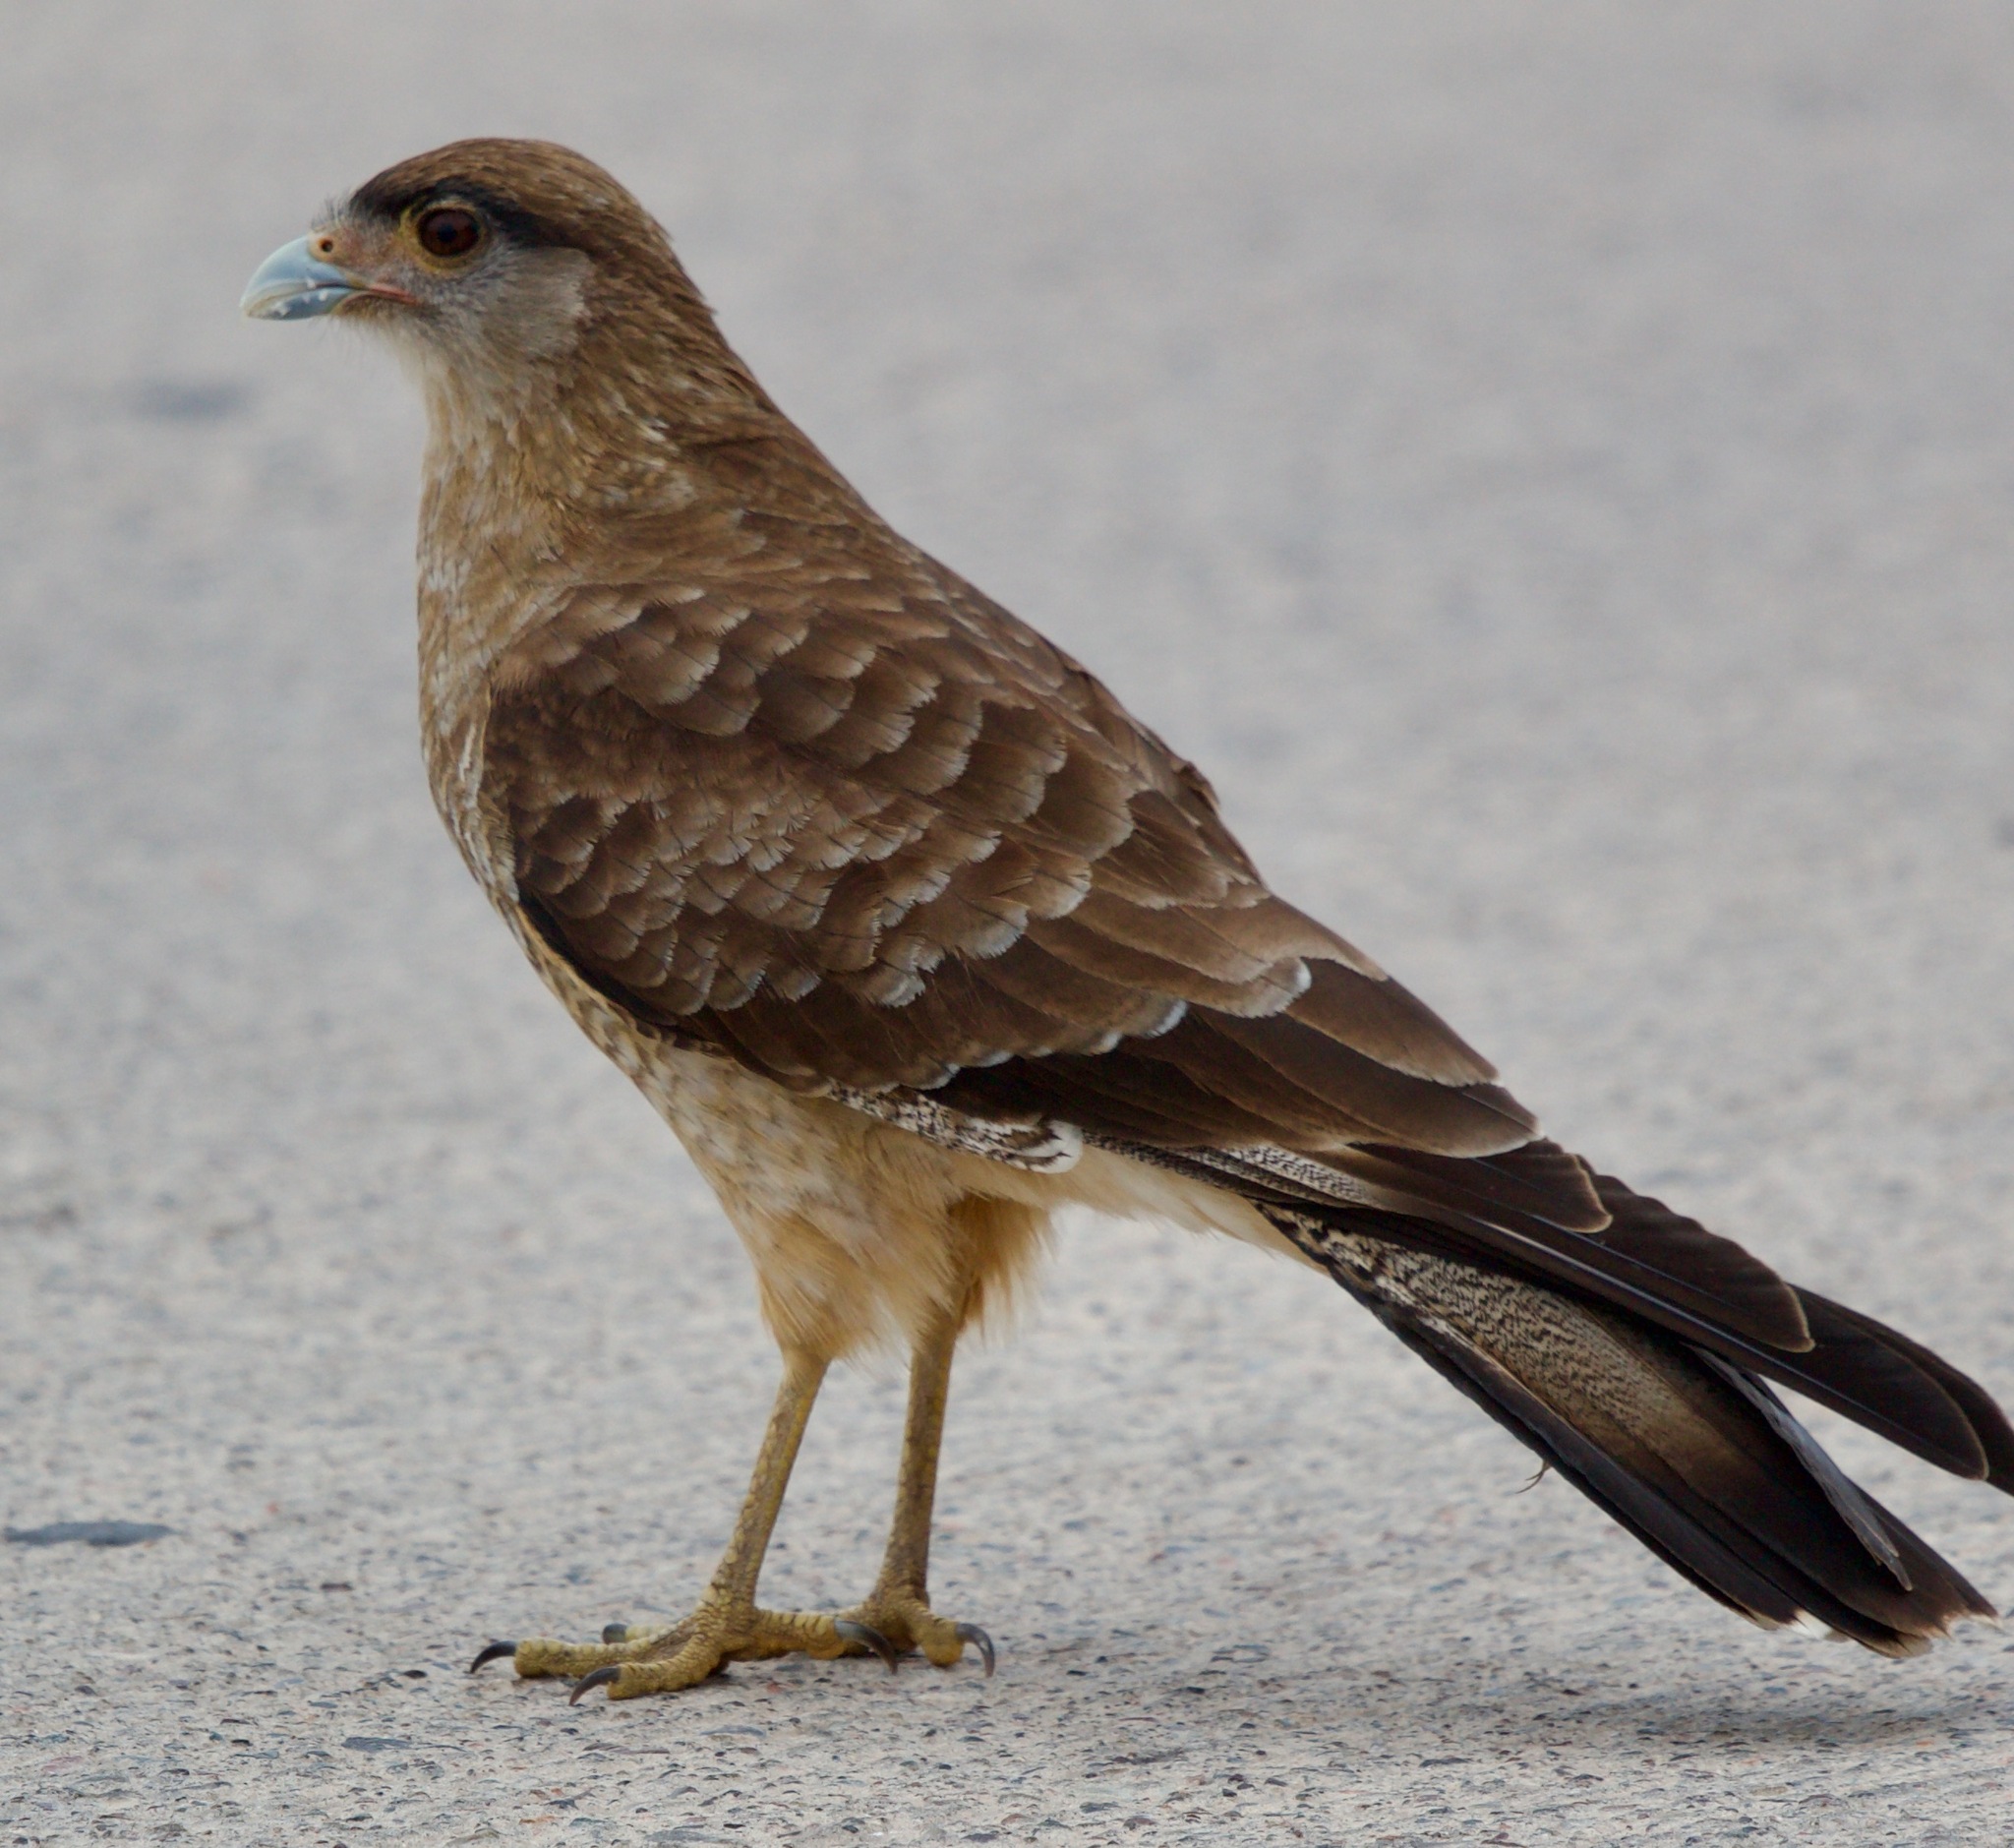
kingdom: Animalia
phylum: Chordata
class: Aves
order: Falconiformes
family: Falconidae
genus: Daptrius
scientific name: Daptrius
